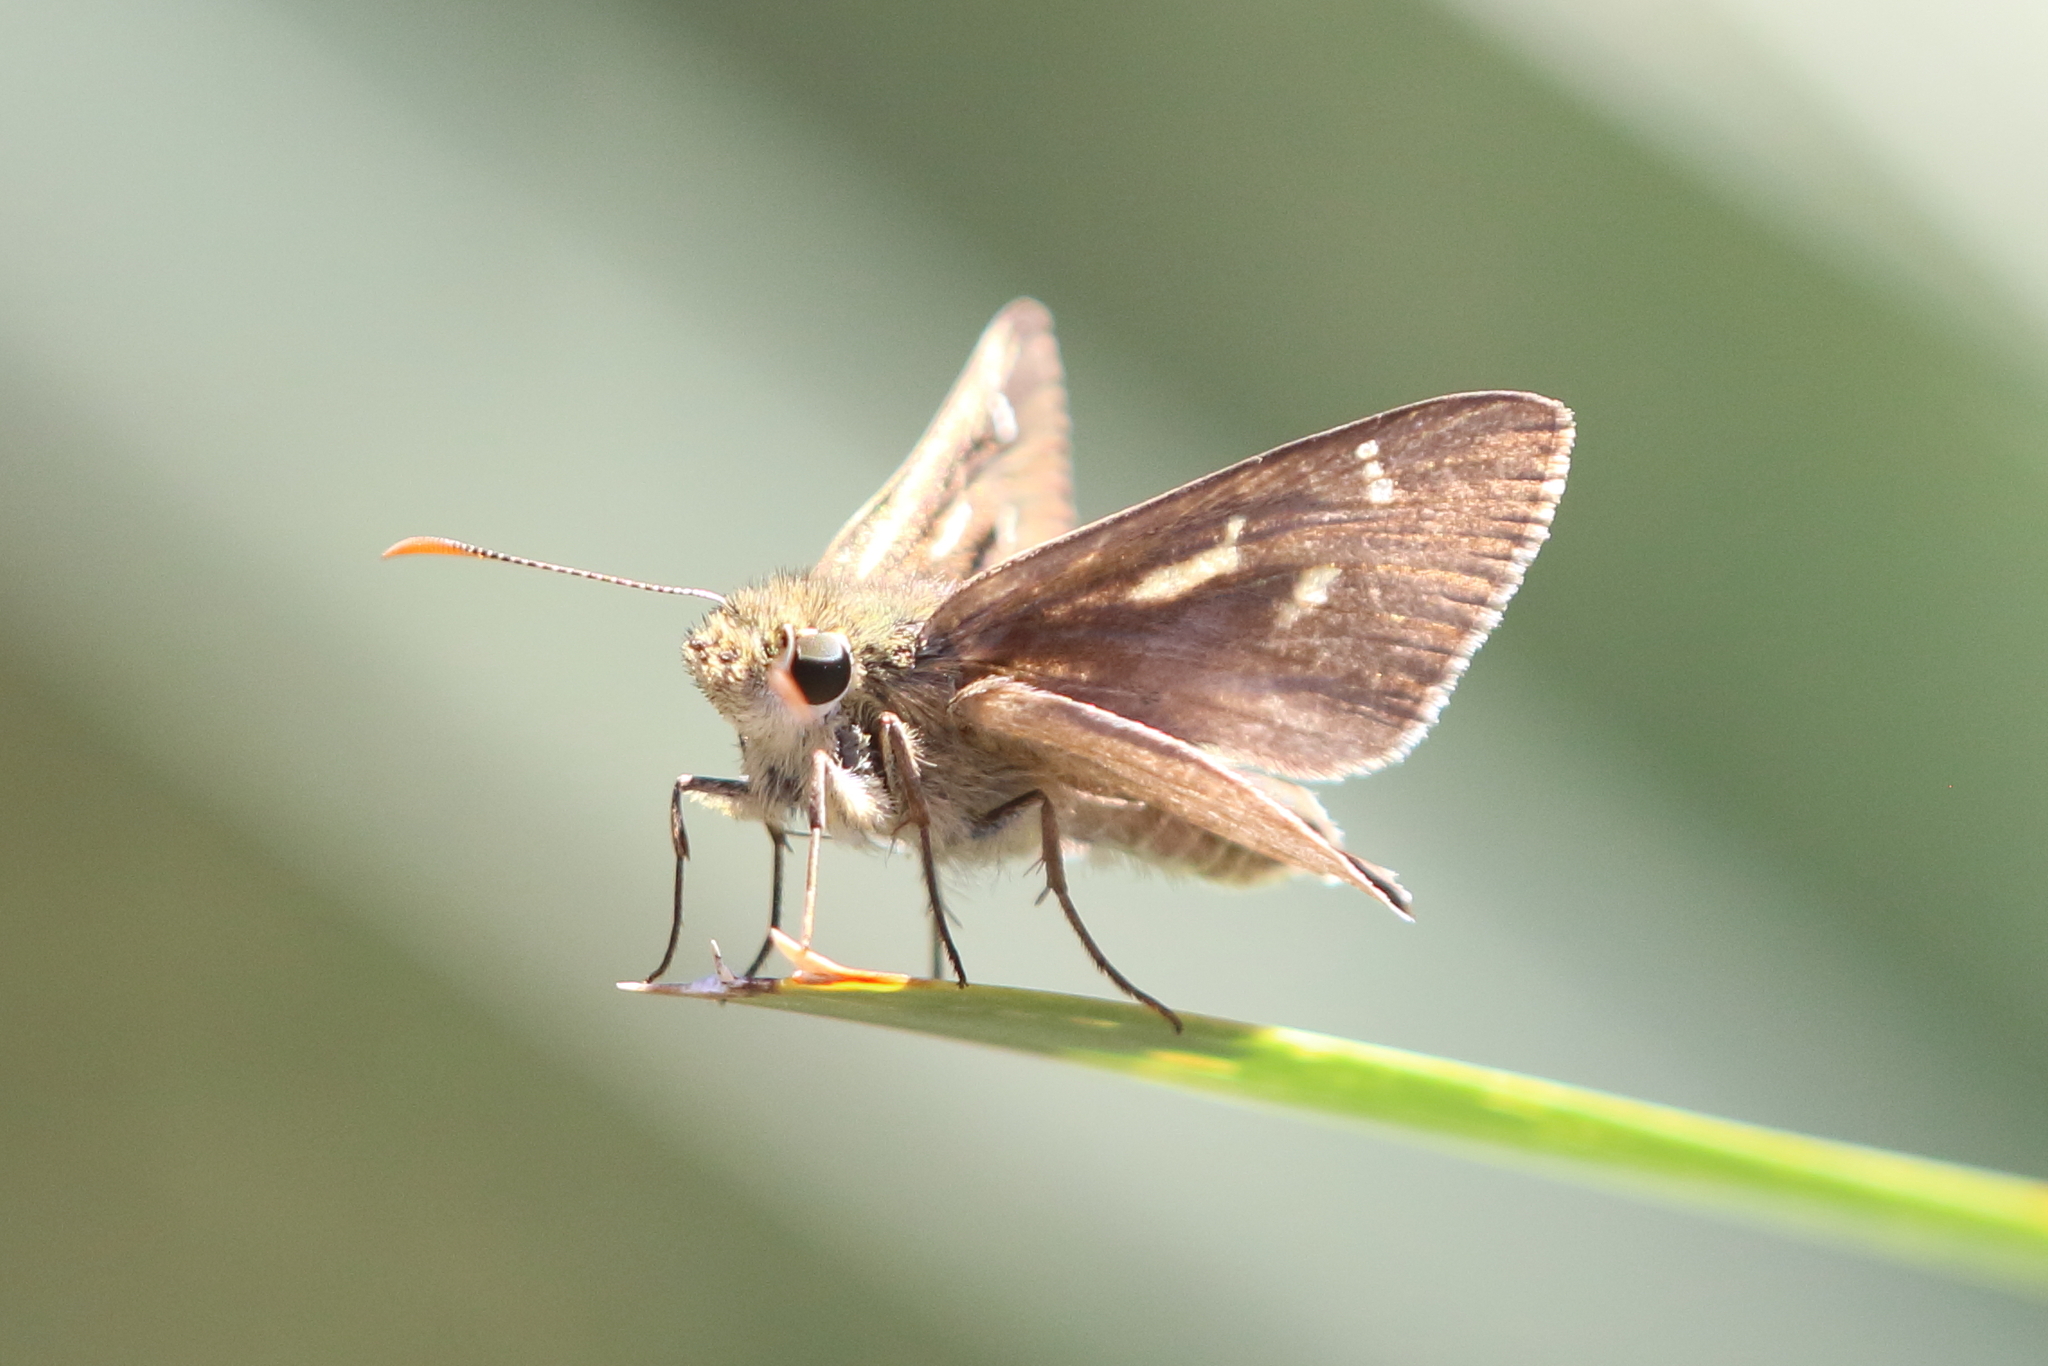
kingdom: Animalia
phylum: Arthropoda
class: Insecta
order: Lepidoptera
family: Hesperiidae
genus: Toxidia
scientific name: Toxidia
